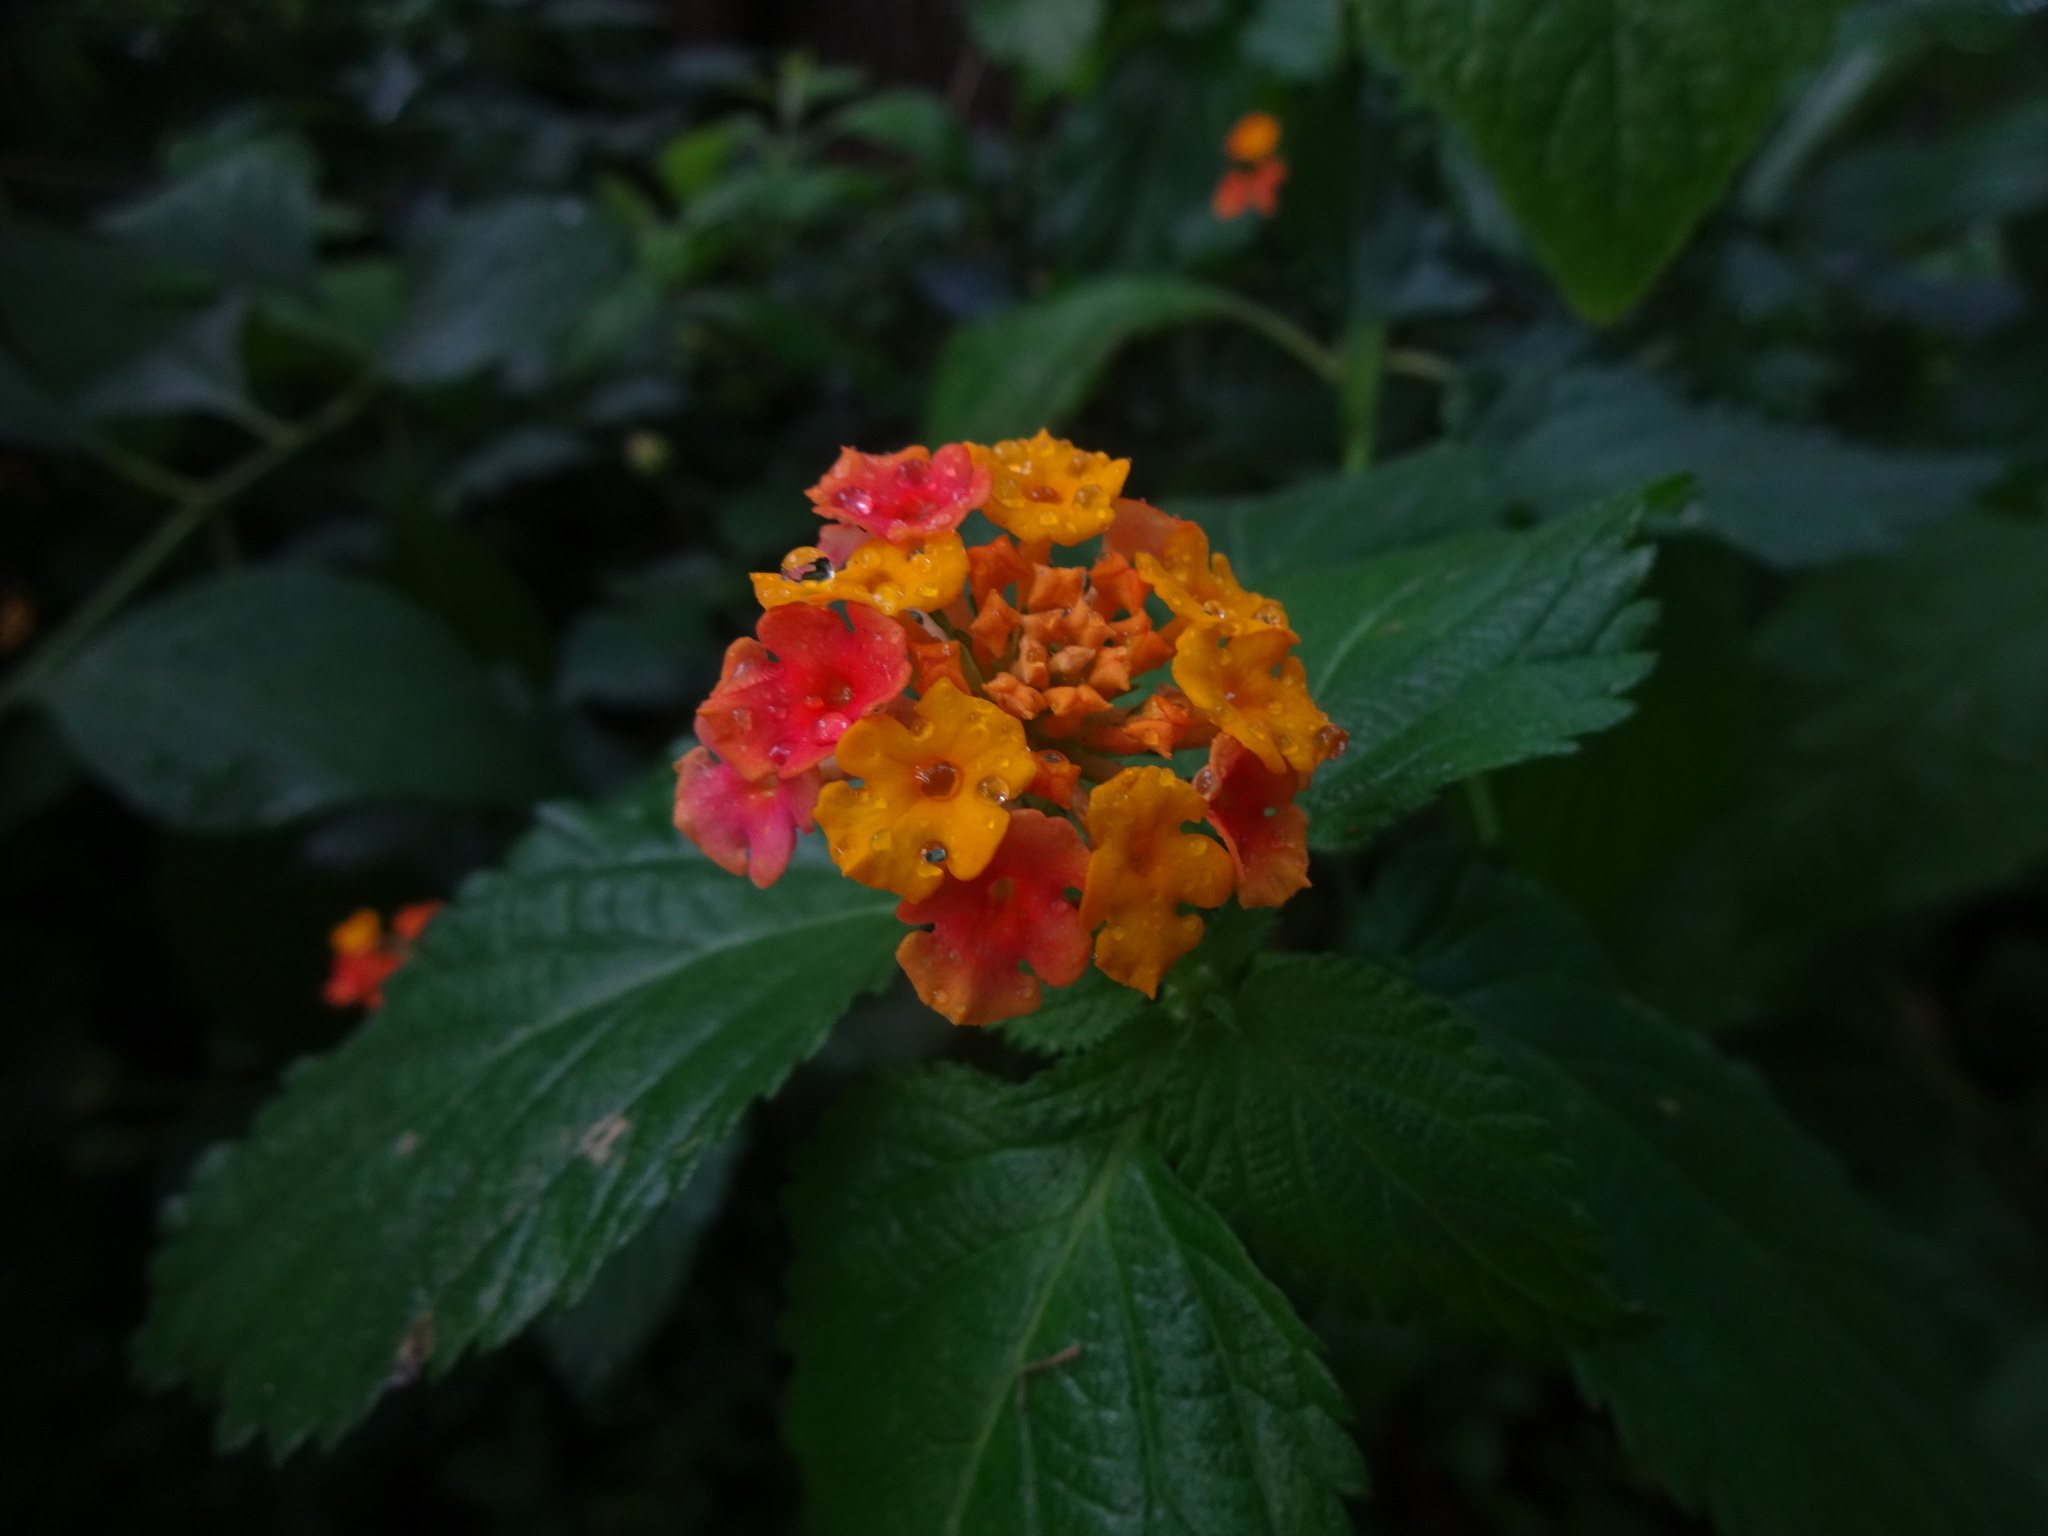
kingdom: Plantae
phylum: Tracheophyta
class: Magnoliopsida
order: Lamiales
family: Verbenaceae
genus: Lantana
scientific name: Lantana camara
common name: Lantana
